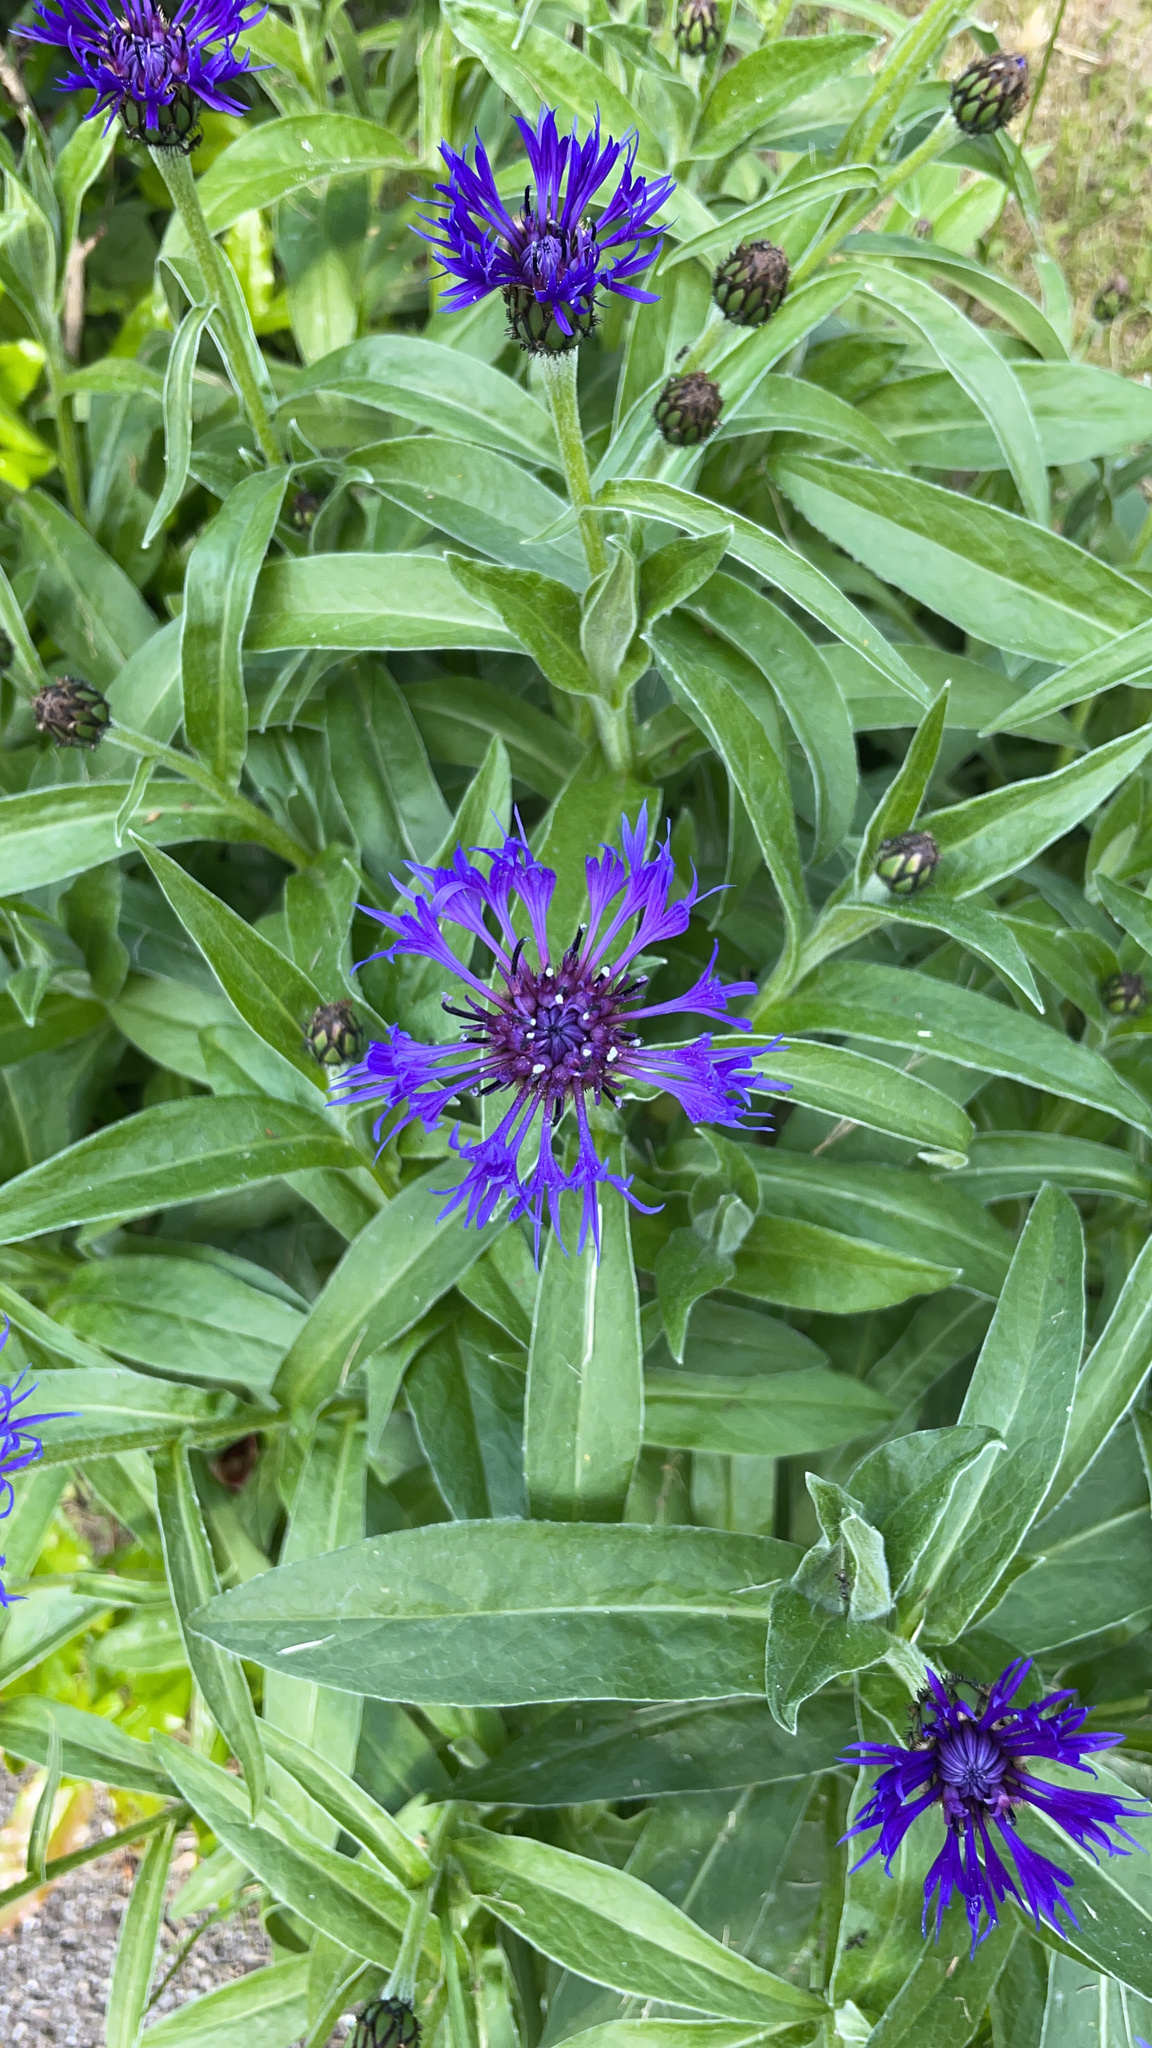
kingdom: Plantae
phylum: Tracheophyta
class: Magnoliopsida
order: Asterales
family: Asteraceae
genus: Centaurea
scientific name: Centaurea montana
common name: Perennial cornflower
